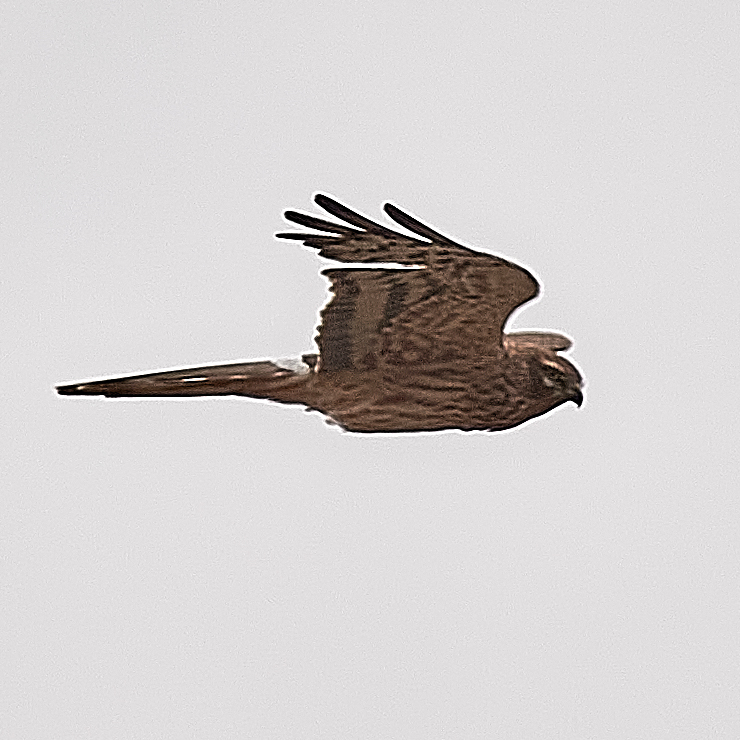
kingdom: Animalia
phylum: Chordata
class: Aves
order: Accipitriformes
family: Accipitridae
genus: Circus
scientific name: Circus pygargus
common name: Montagu's harrier
